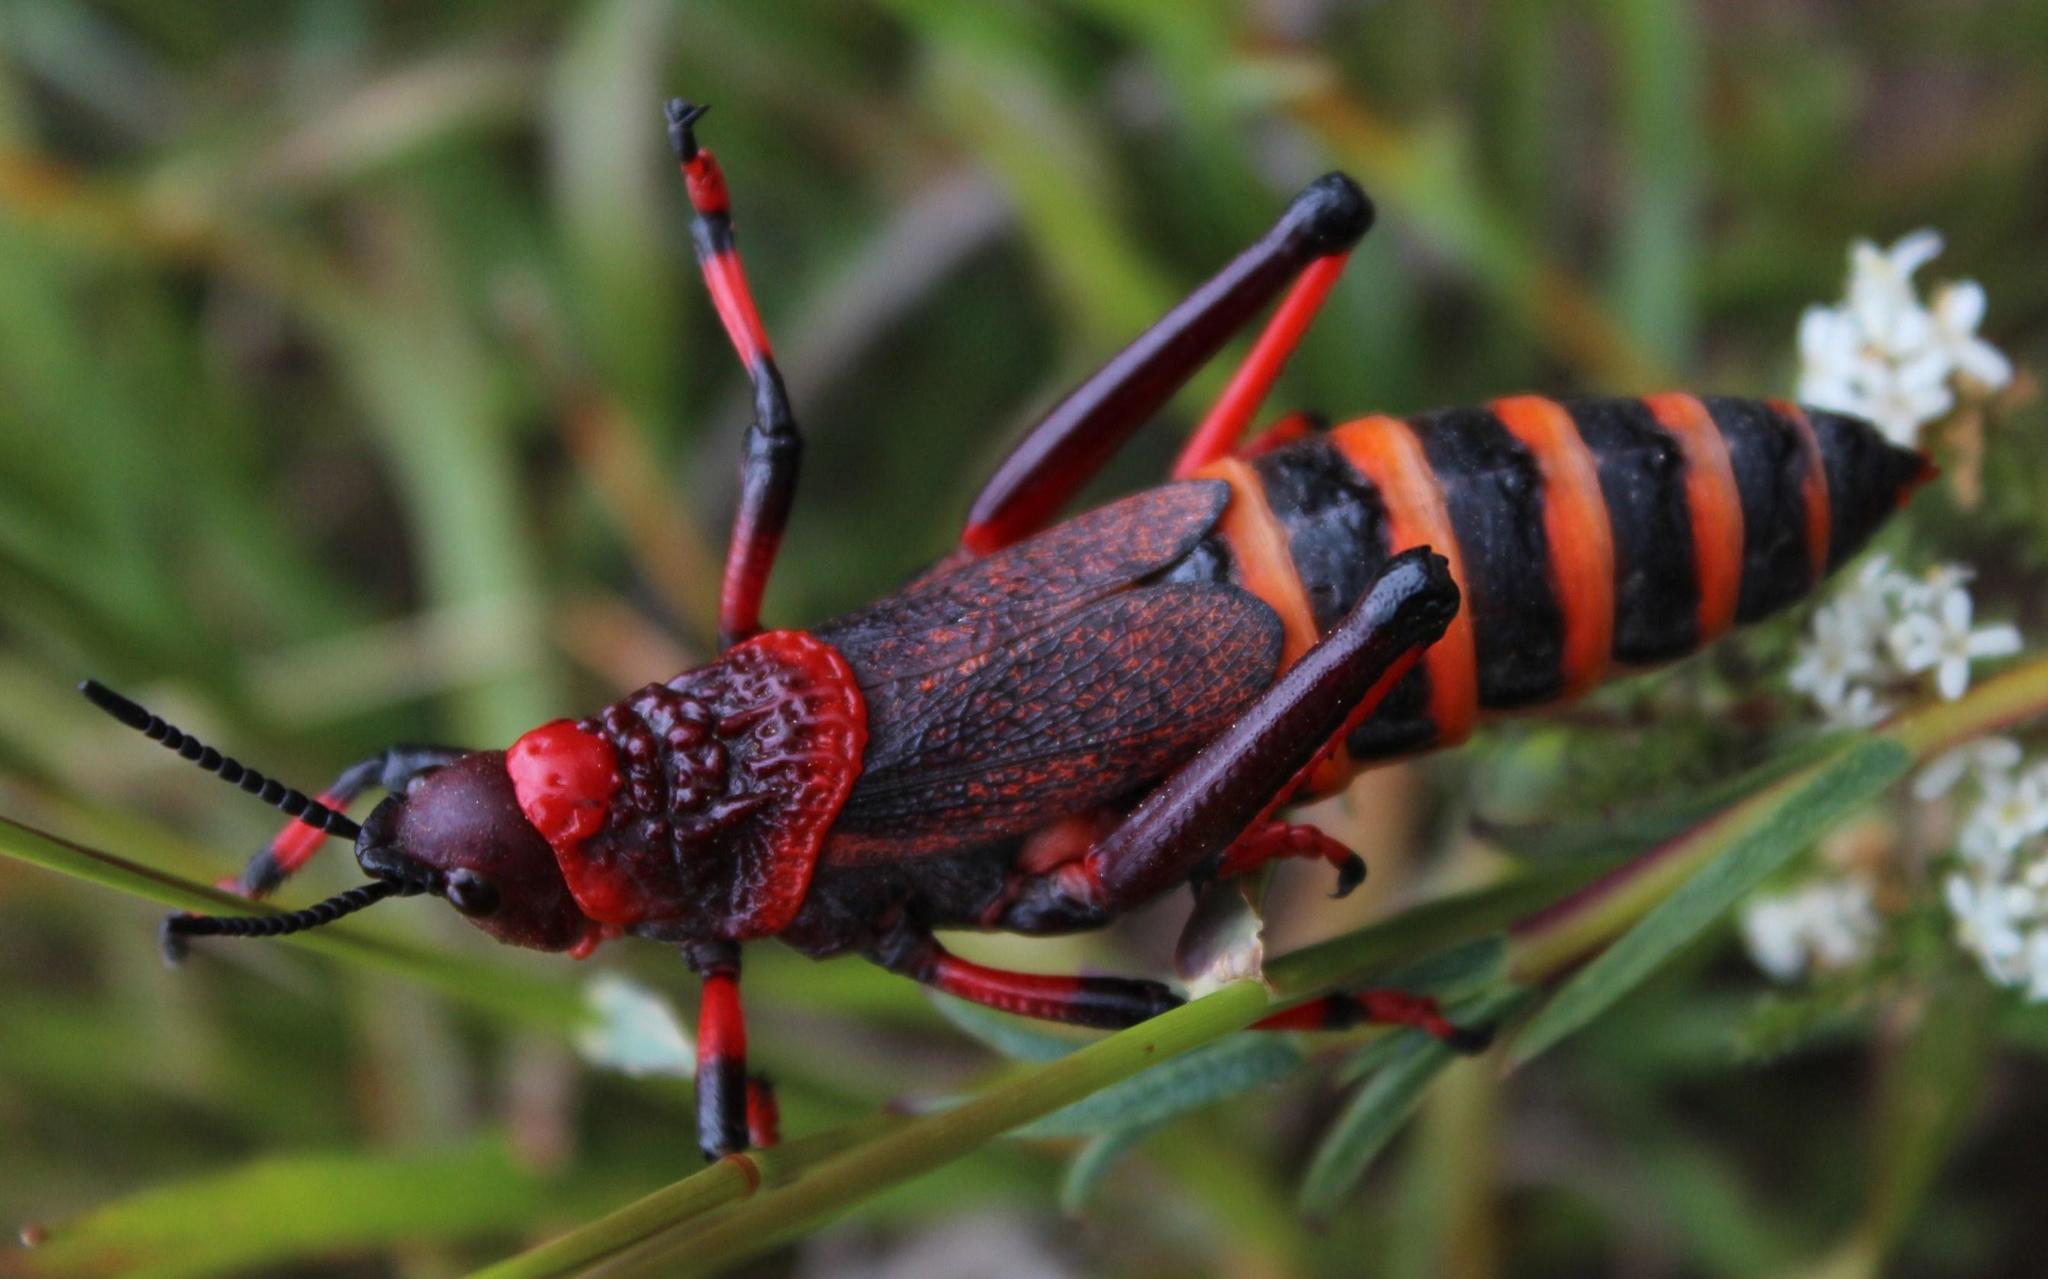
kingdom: Animalia
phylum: Arthropoda
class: Insecta
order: Orthoptera
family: Pyrgomorphidae
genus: Dictyophorus
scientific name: Dictyophorus spumans
